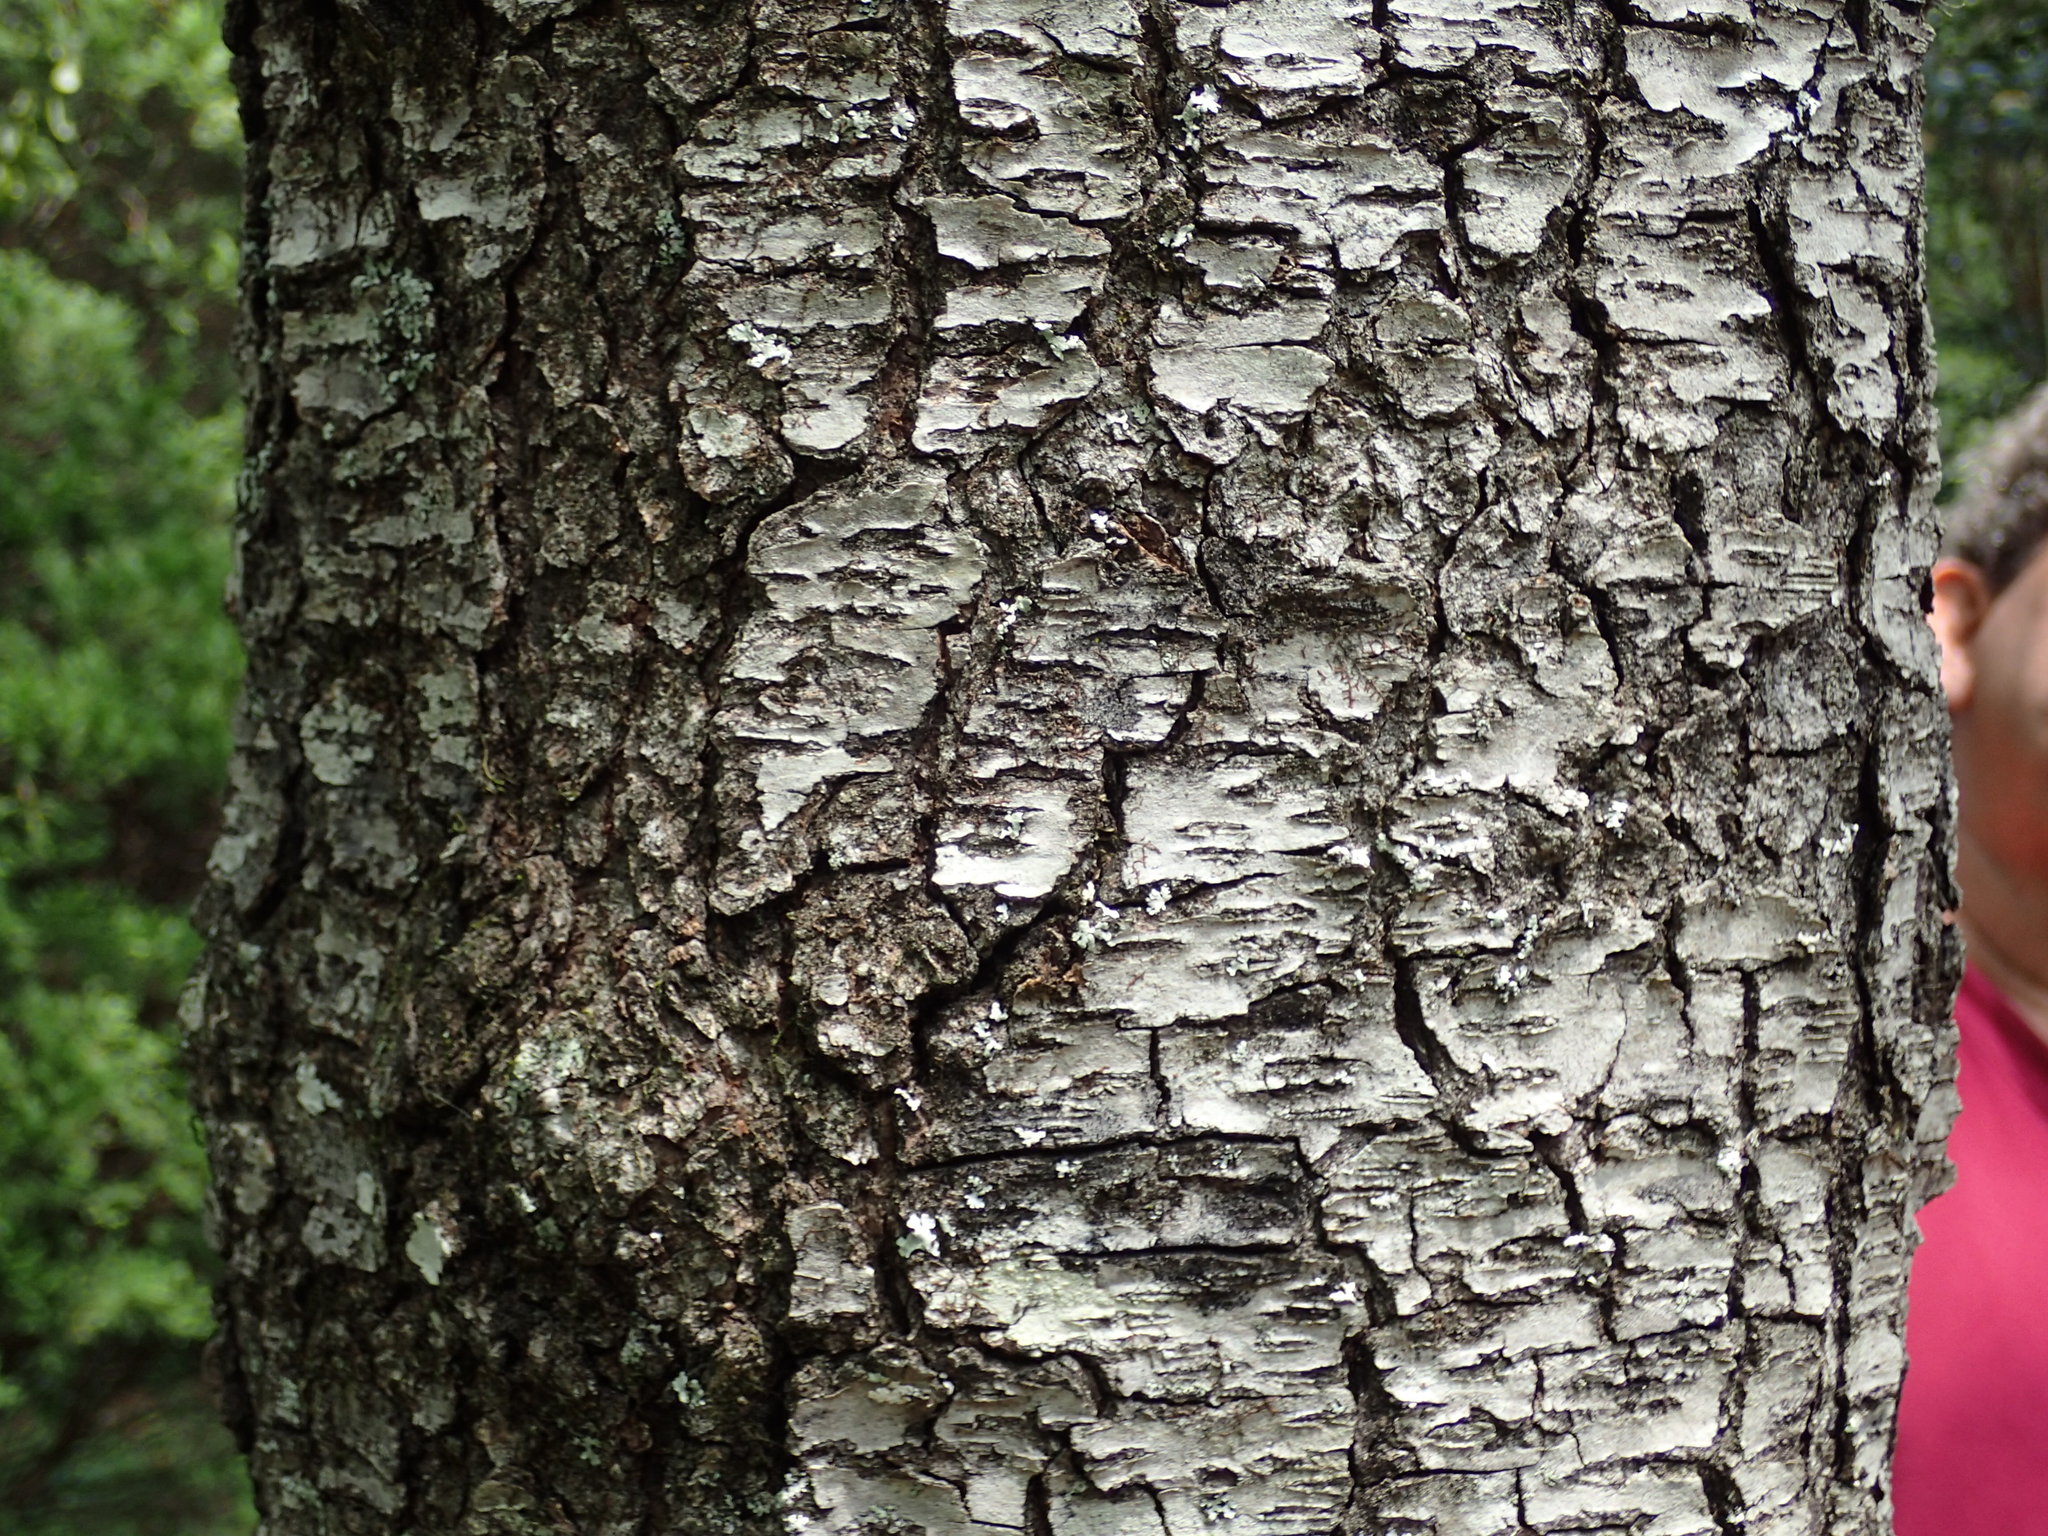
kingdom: Plantae
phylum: Tracheophyta
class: Magnoliopsida
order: Rosales
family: Rosaceae
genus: Prunus
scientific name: Prunus serotina
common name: Black cherry
